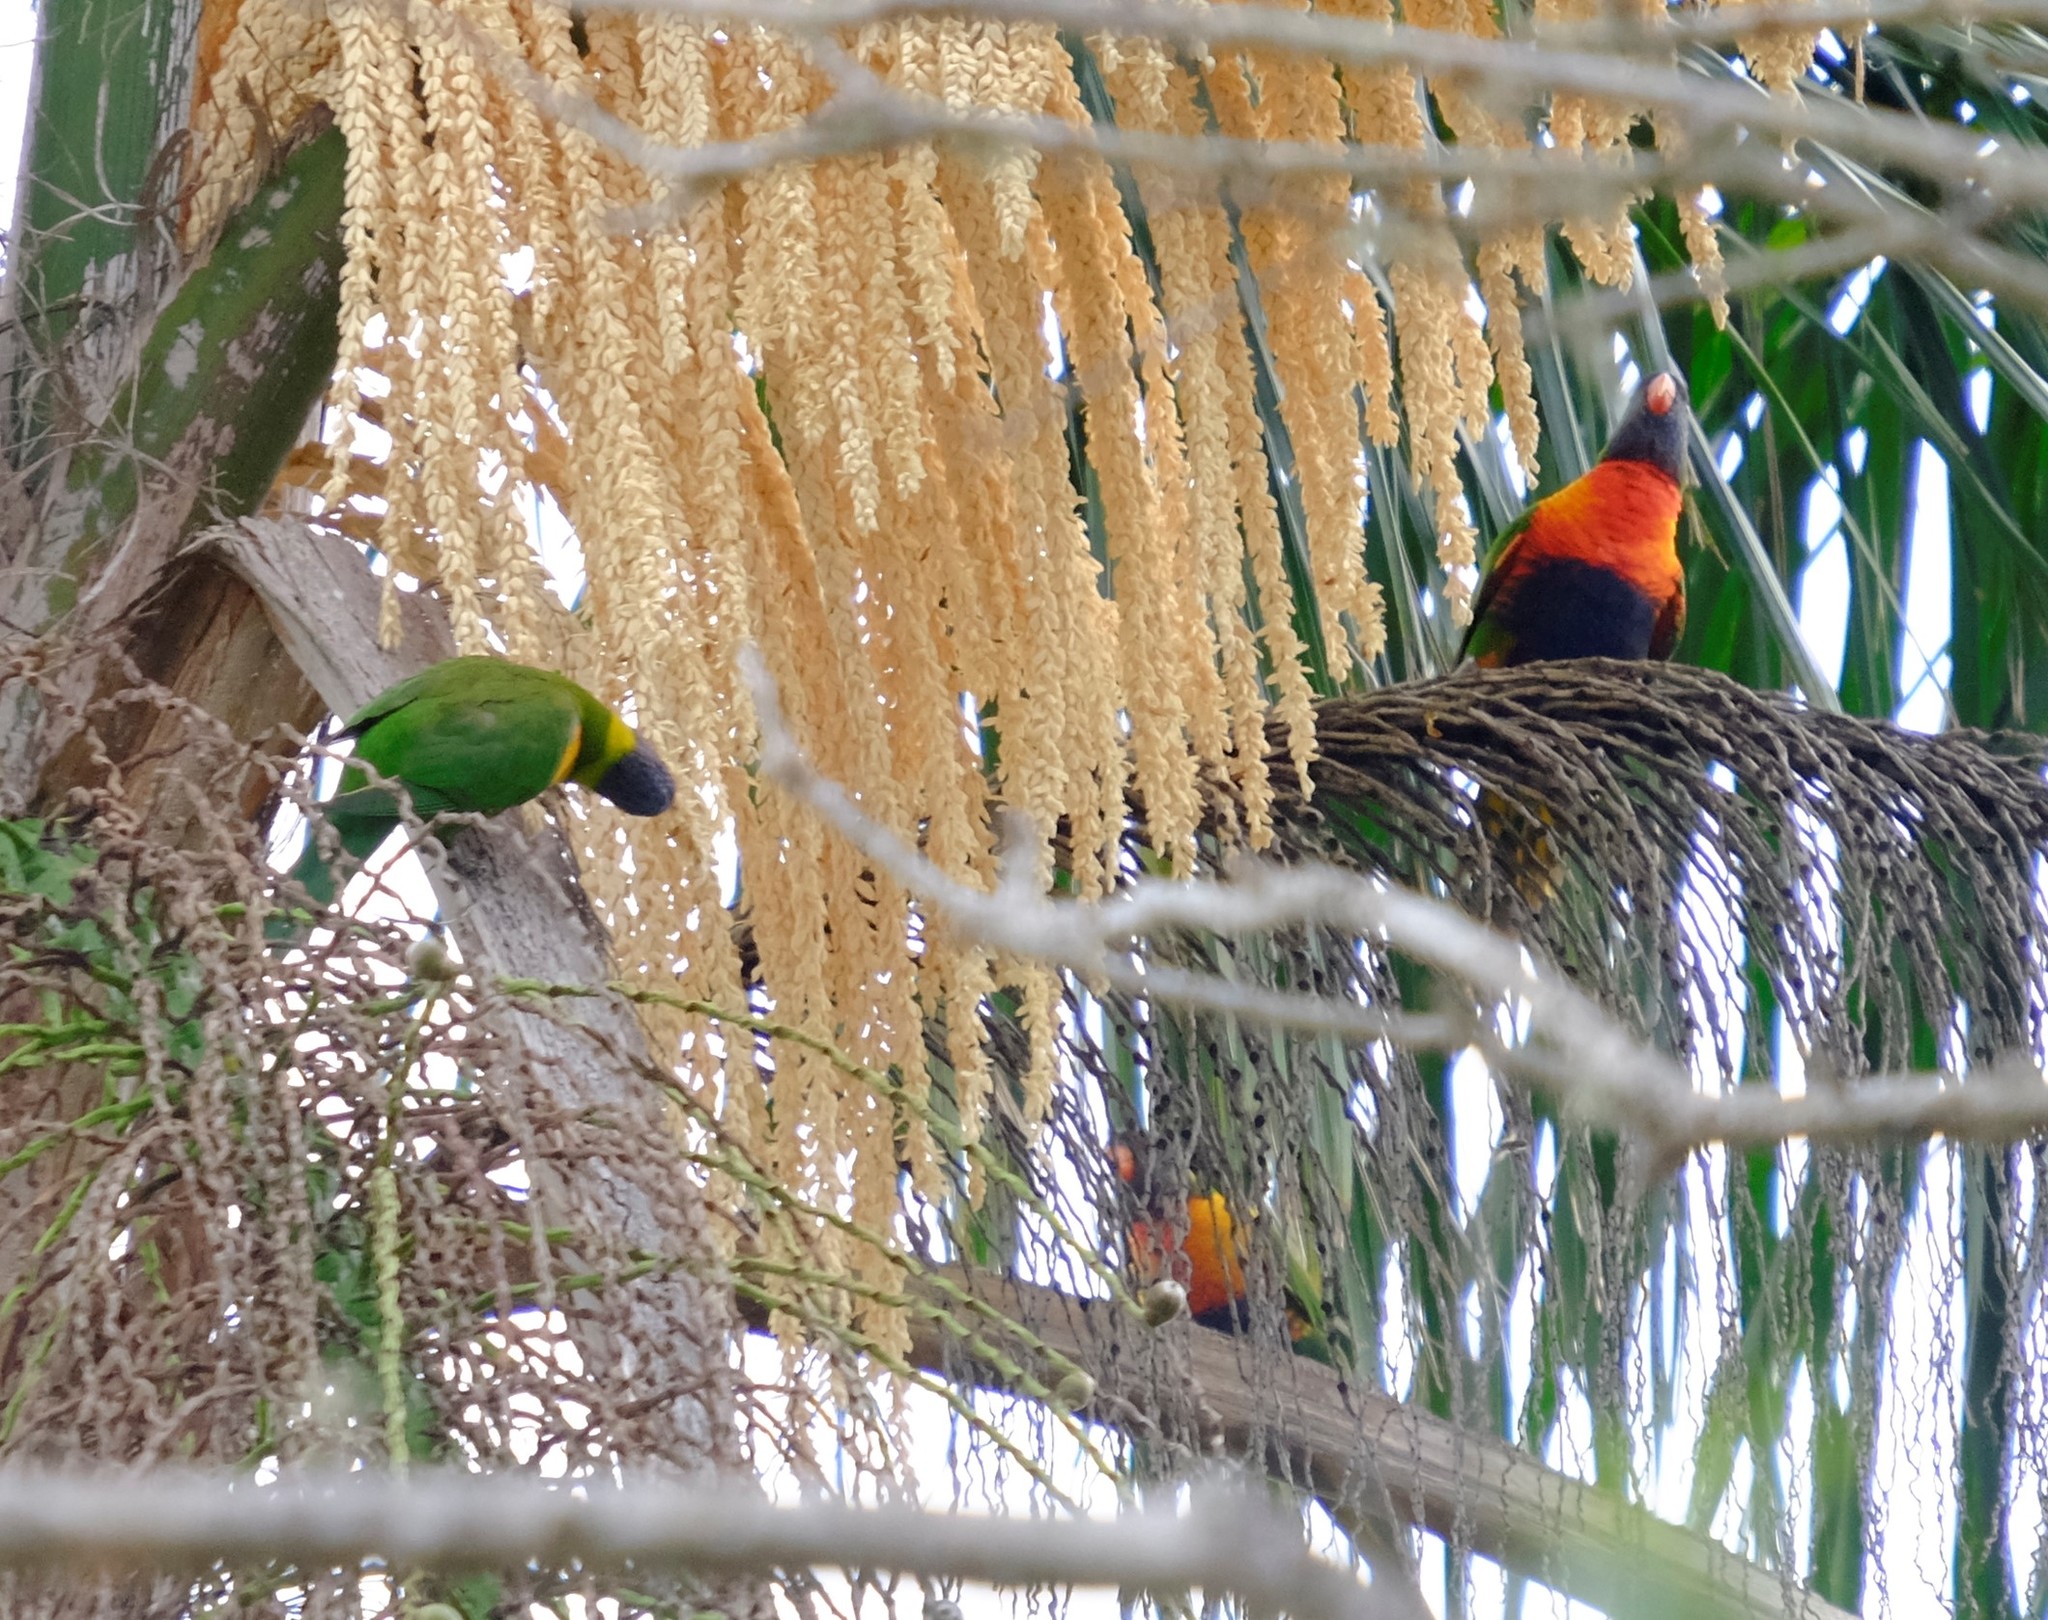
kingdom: Animalia
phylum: Chordata
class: Aves
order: Psittaciformes
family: Psittacidae
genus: Trichoglossus
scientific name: Trichoglossus haematodus
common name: Coconut lorikeet
